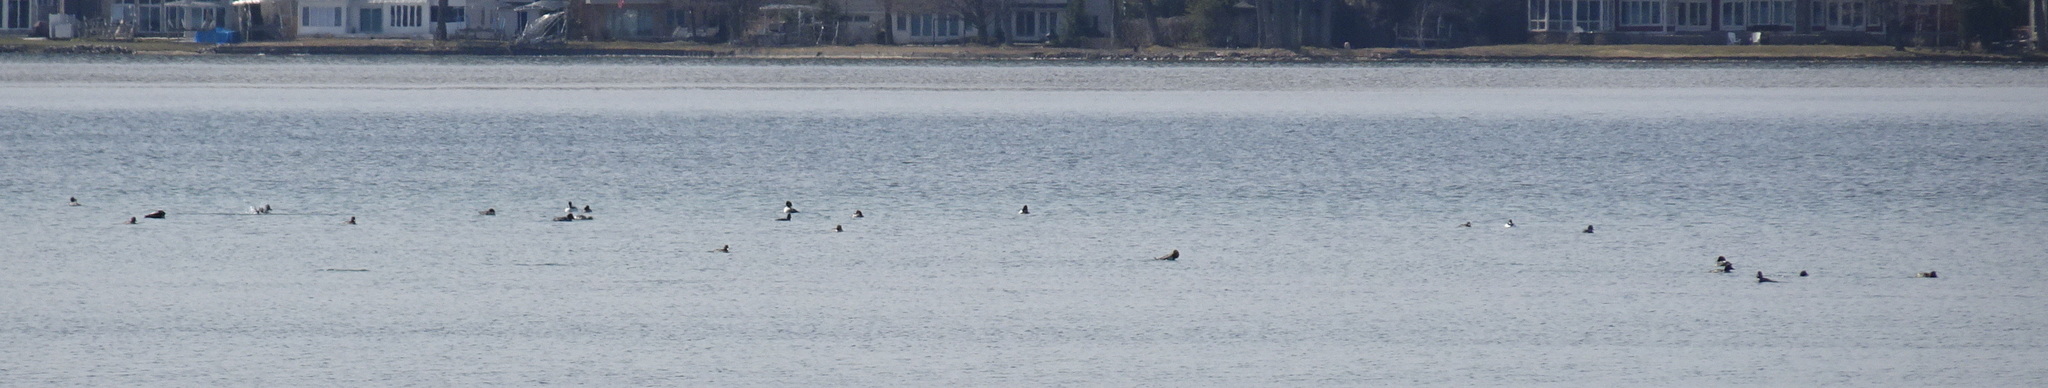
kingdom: Animalia
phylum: Chordata
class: Aves
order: Anseriformes
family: Anatidae
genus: Bucephala
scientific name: Bucephala clangula
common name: Common goldeneye
